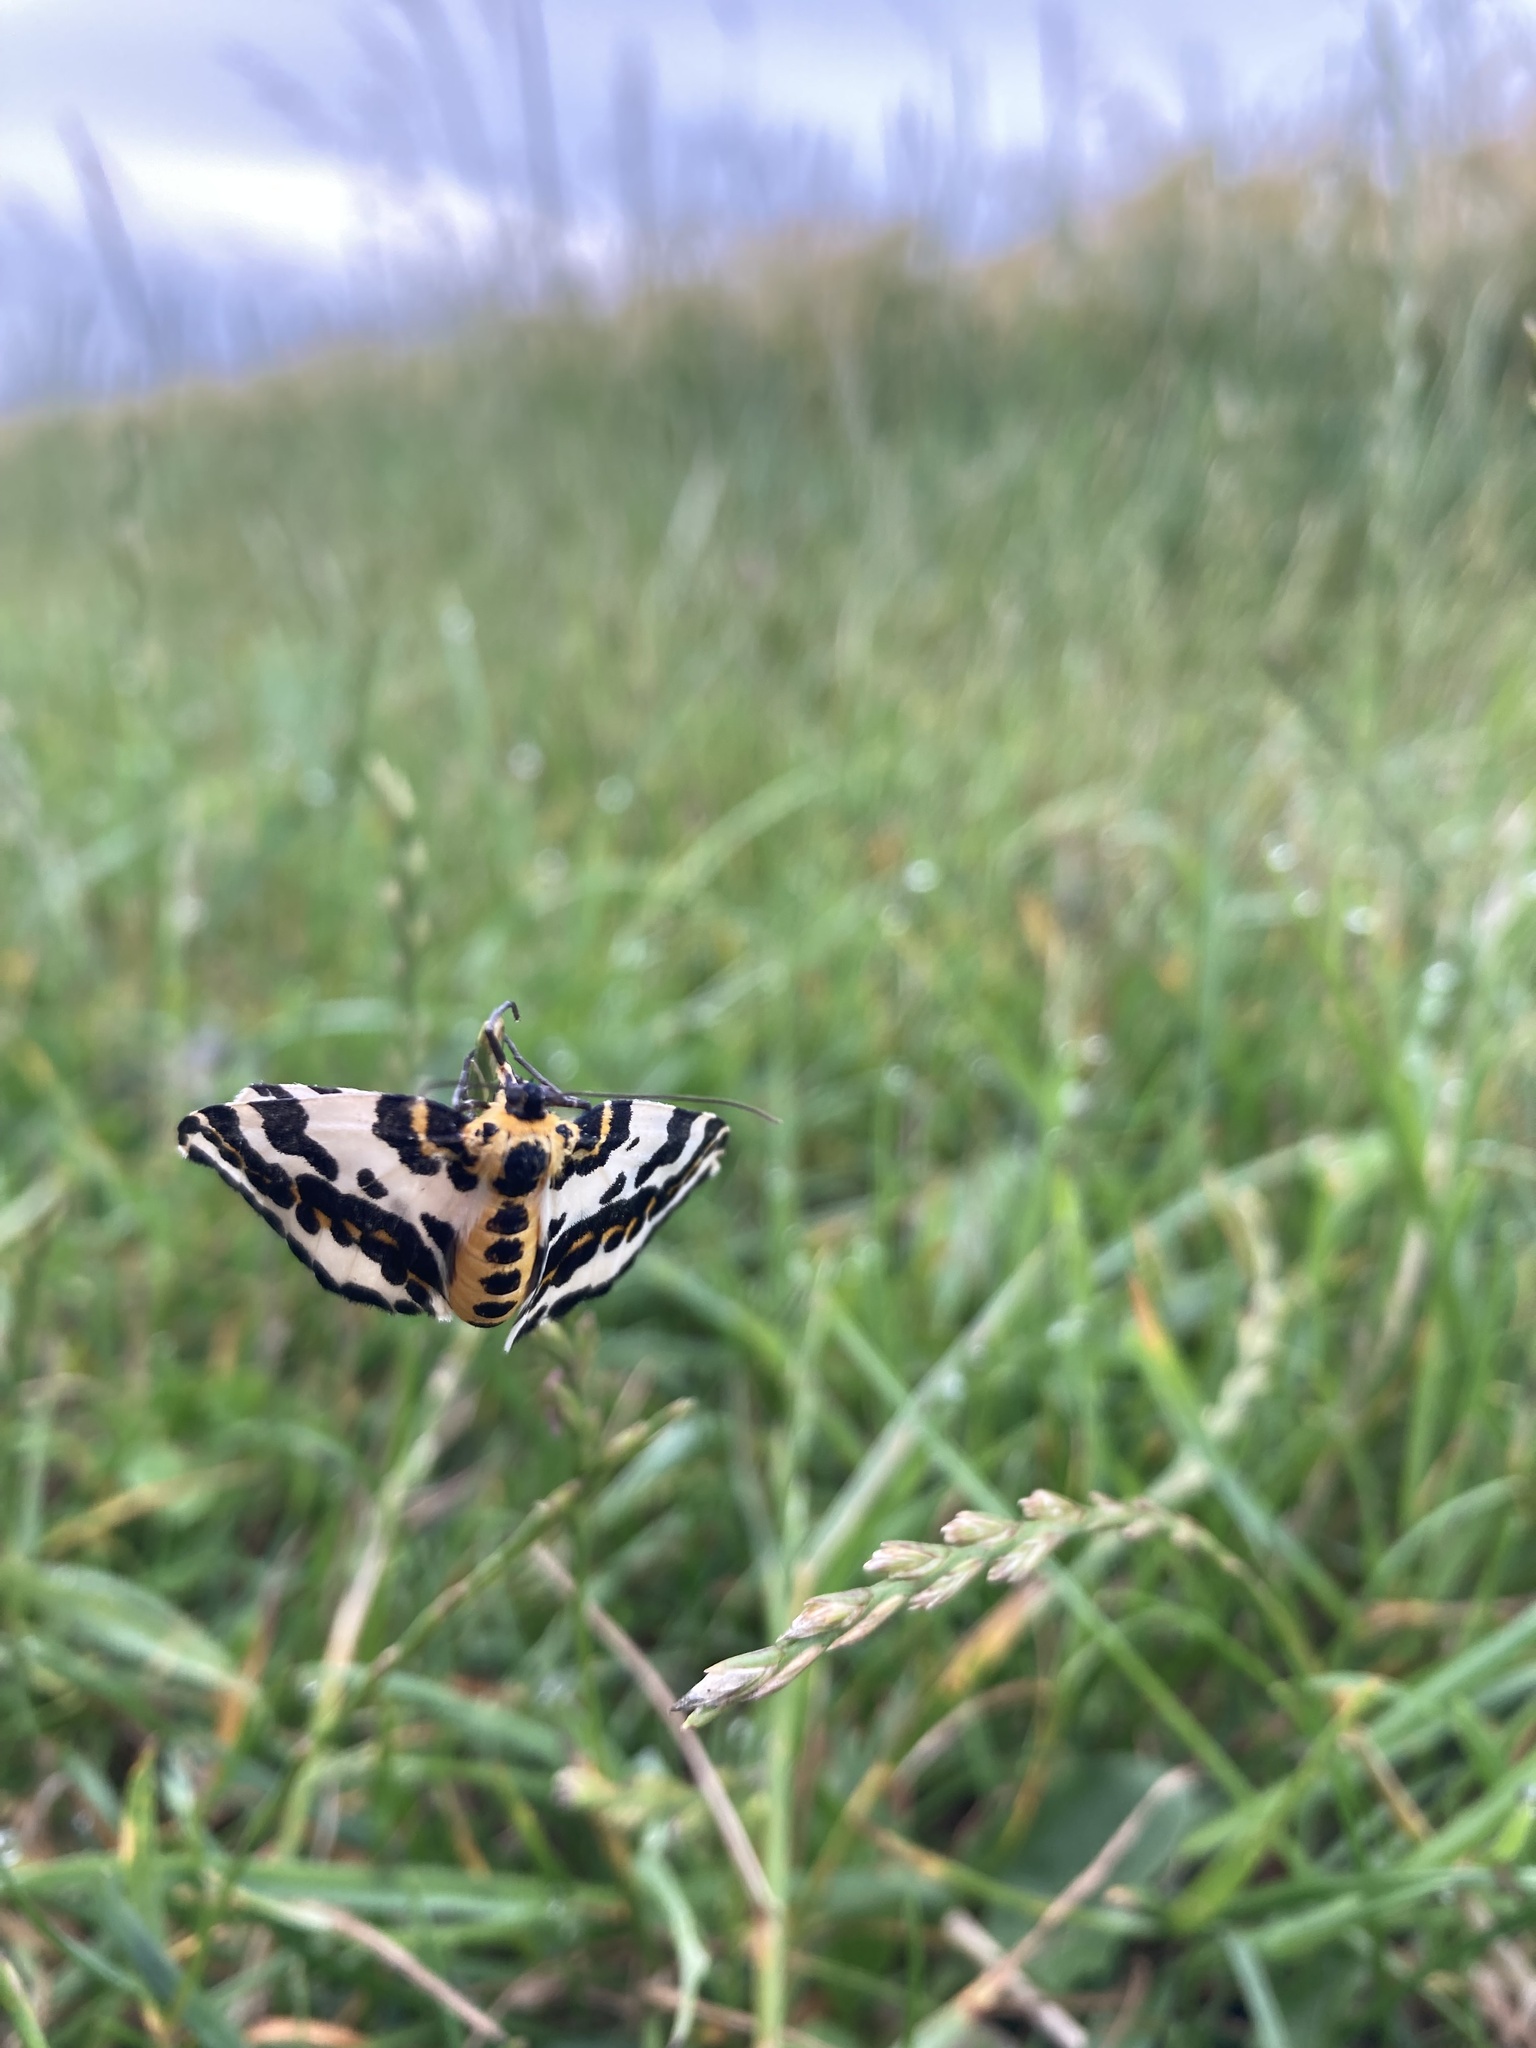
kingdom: Animalia
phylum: Arthropoda
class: Insecta
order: Lepidoptera
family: Geometridae
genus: Abraxas
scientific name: Abraxas grossulariata
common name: Magpie
